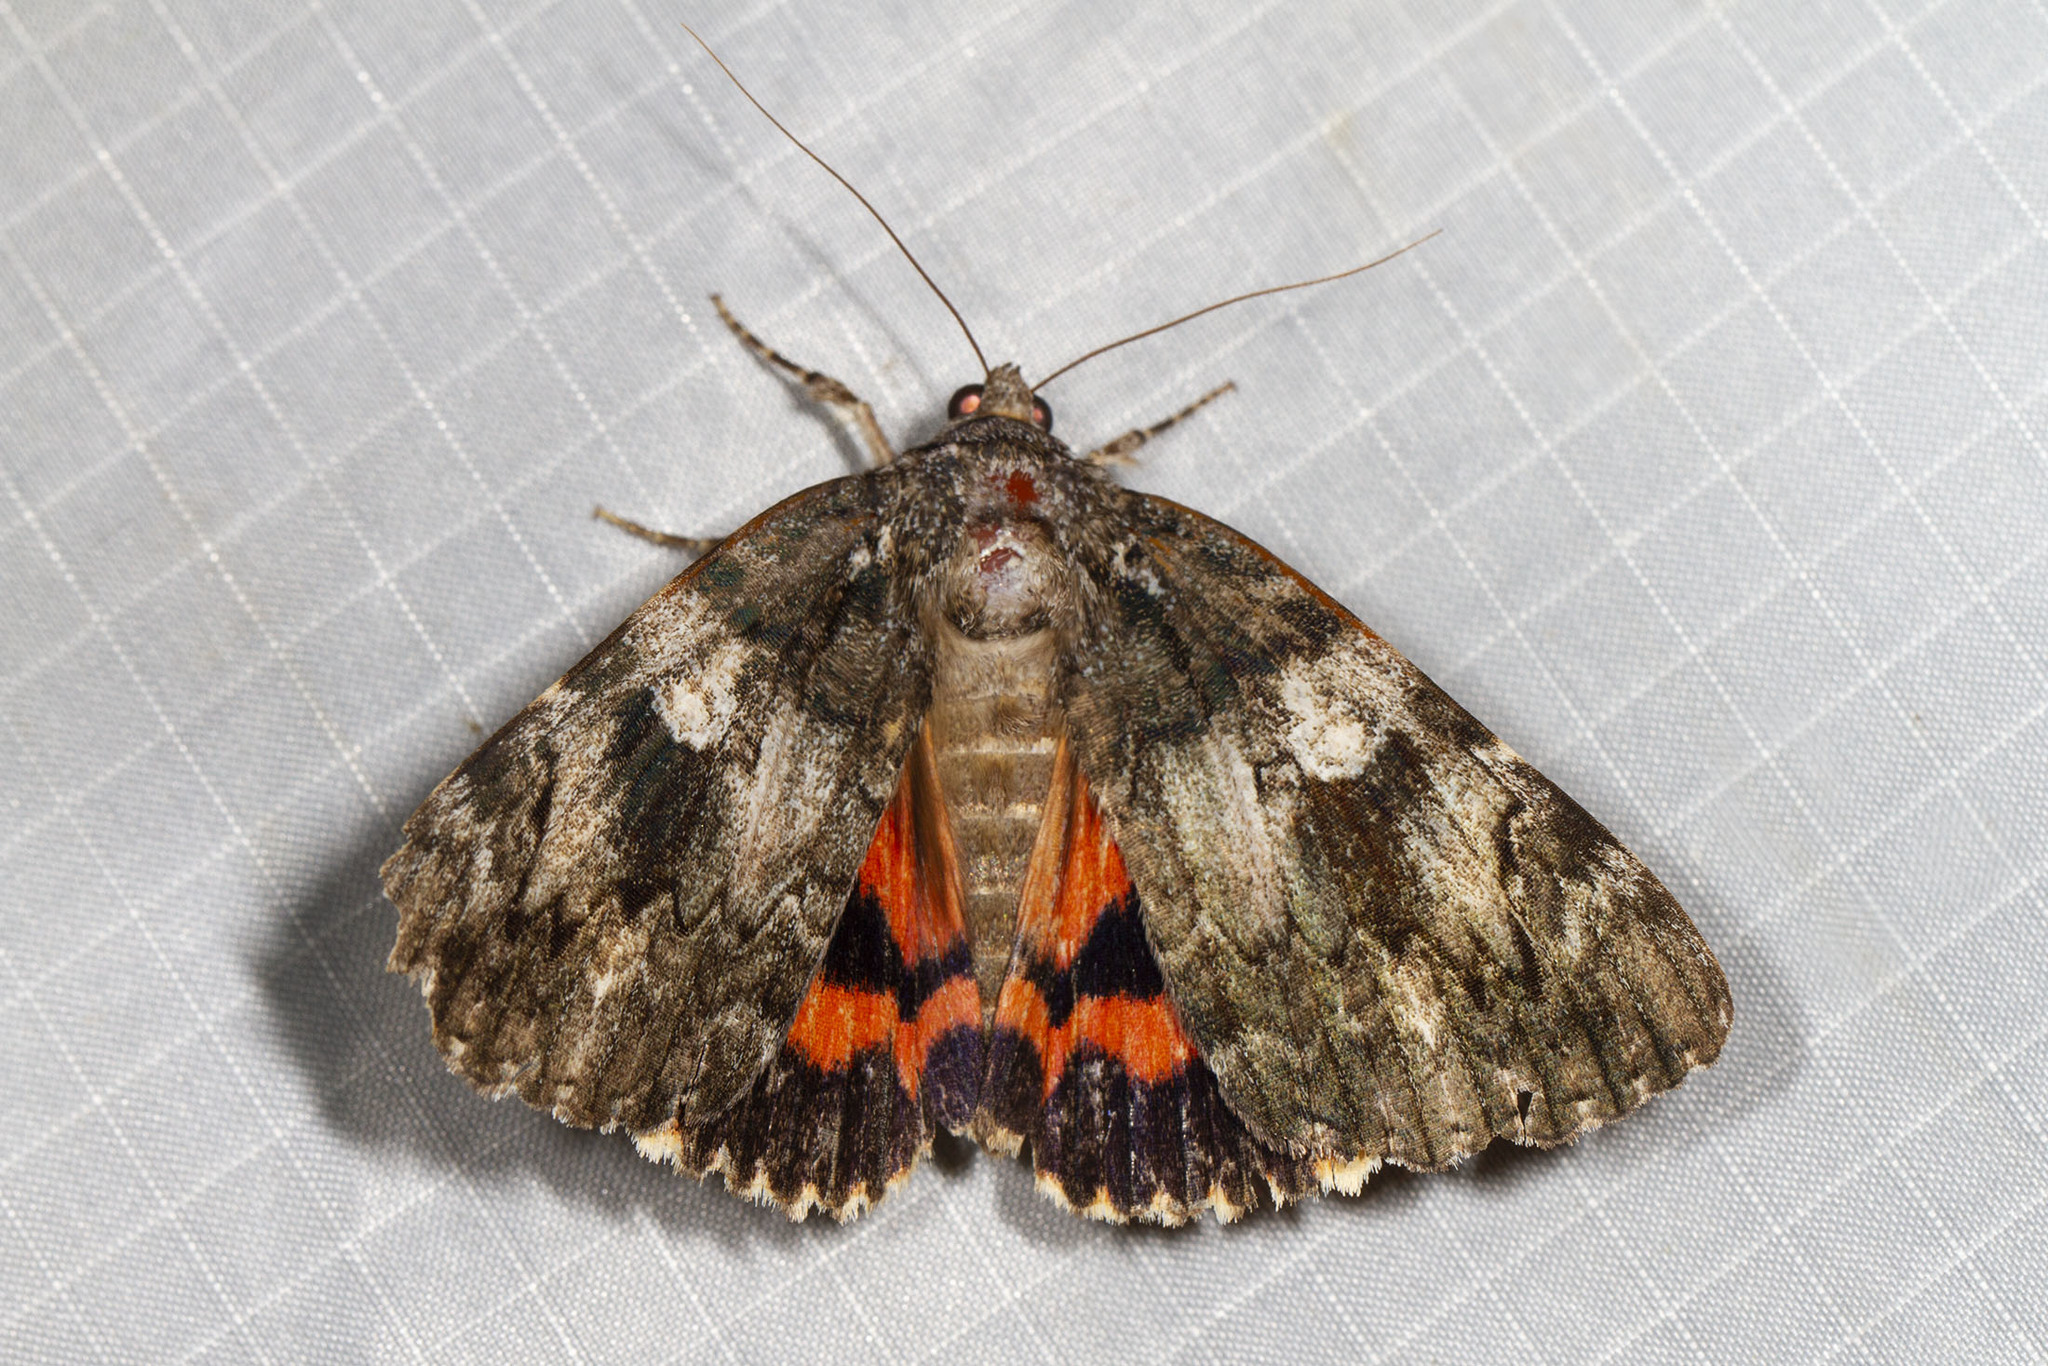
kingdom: Animalia
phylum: Arthropoda
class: Insecta
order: Lepidoptera
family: Erebidae
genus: Catocala
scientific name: Catocala ilia
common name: Ilia underwing
